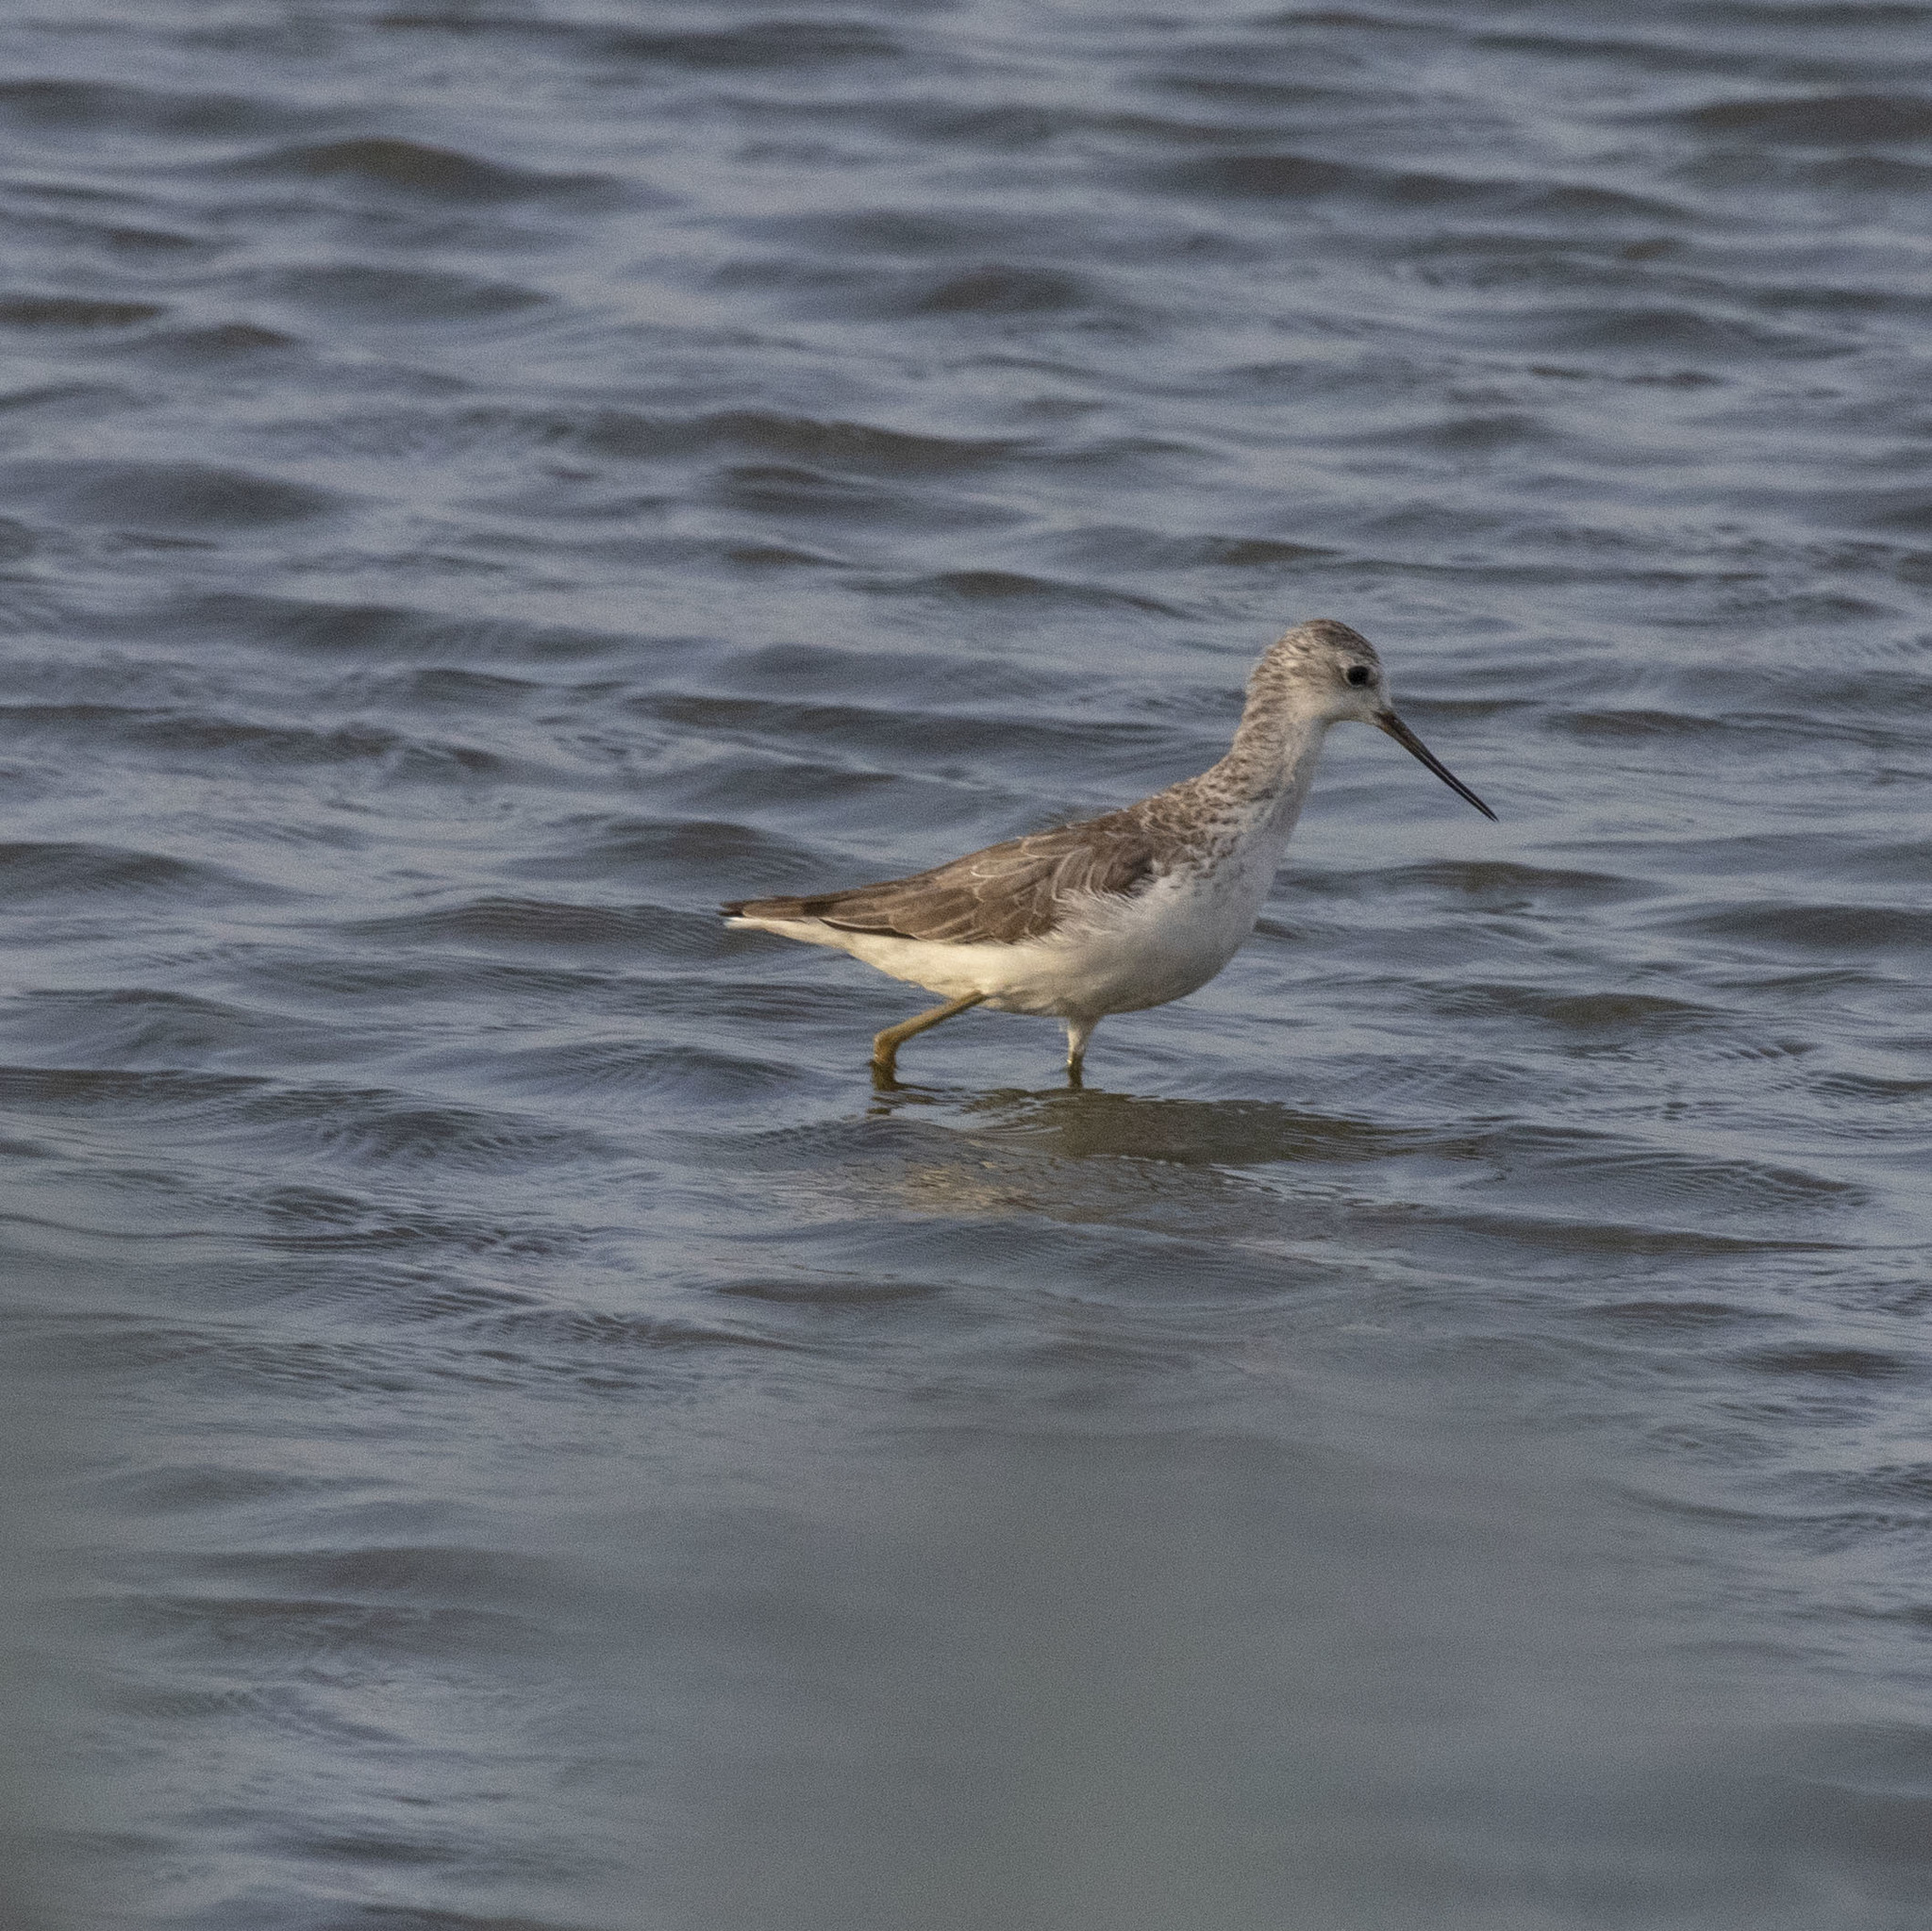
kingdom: Animalia
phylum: Chordata
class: Aves
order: Charadriiformes
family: Scolopacidae
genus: Tringa
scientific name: Tringa stagnatilis
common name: Marsh sandpiper
